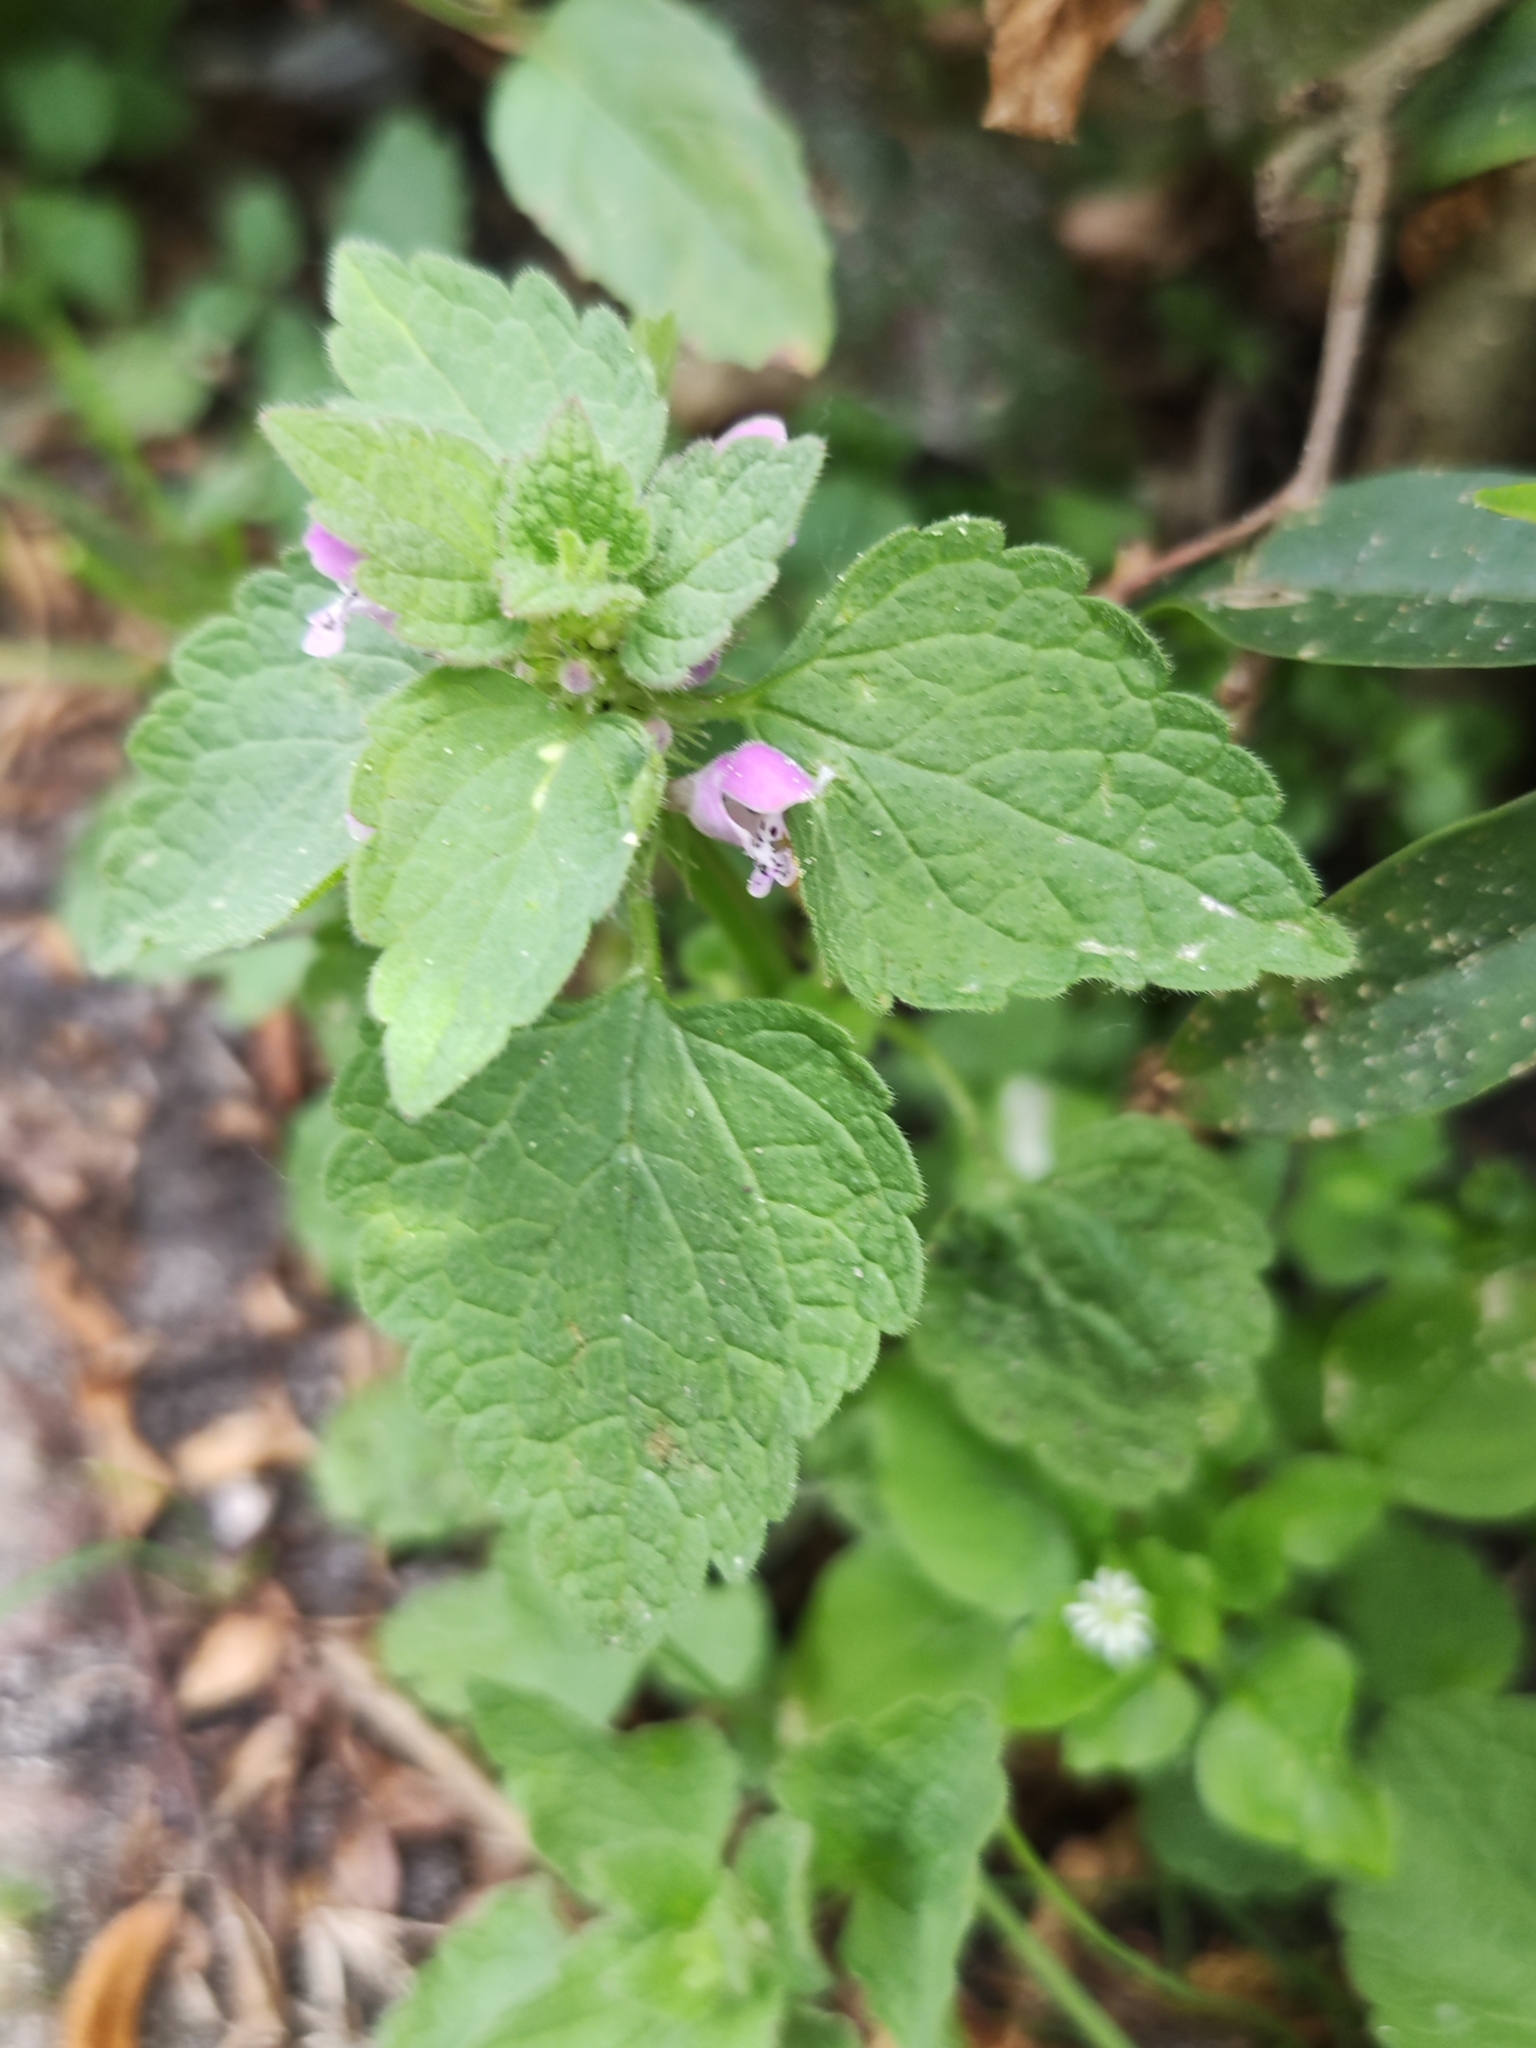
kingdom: Plantae
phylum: Tracheophyta
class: Magnoliopsida
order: Lamiales
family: Lamiaceae
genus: Lamium
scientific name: Lamium purpureum
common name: Red dead-nettle
